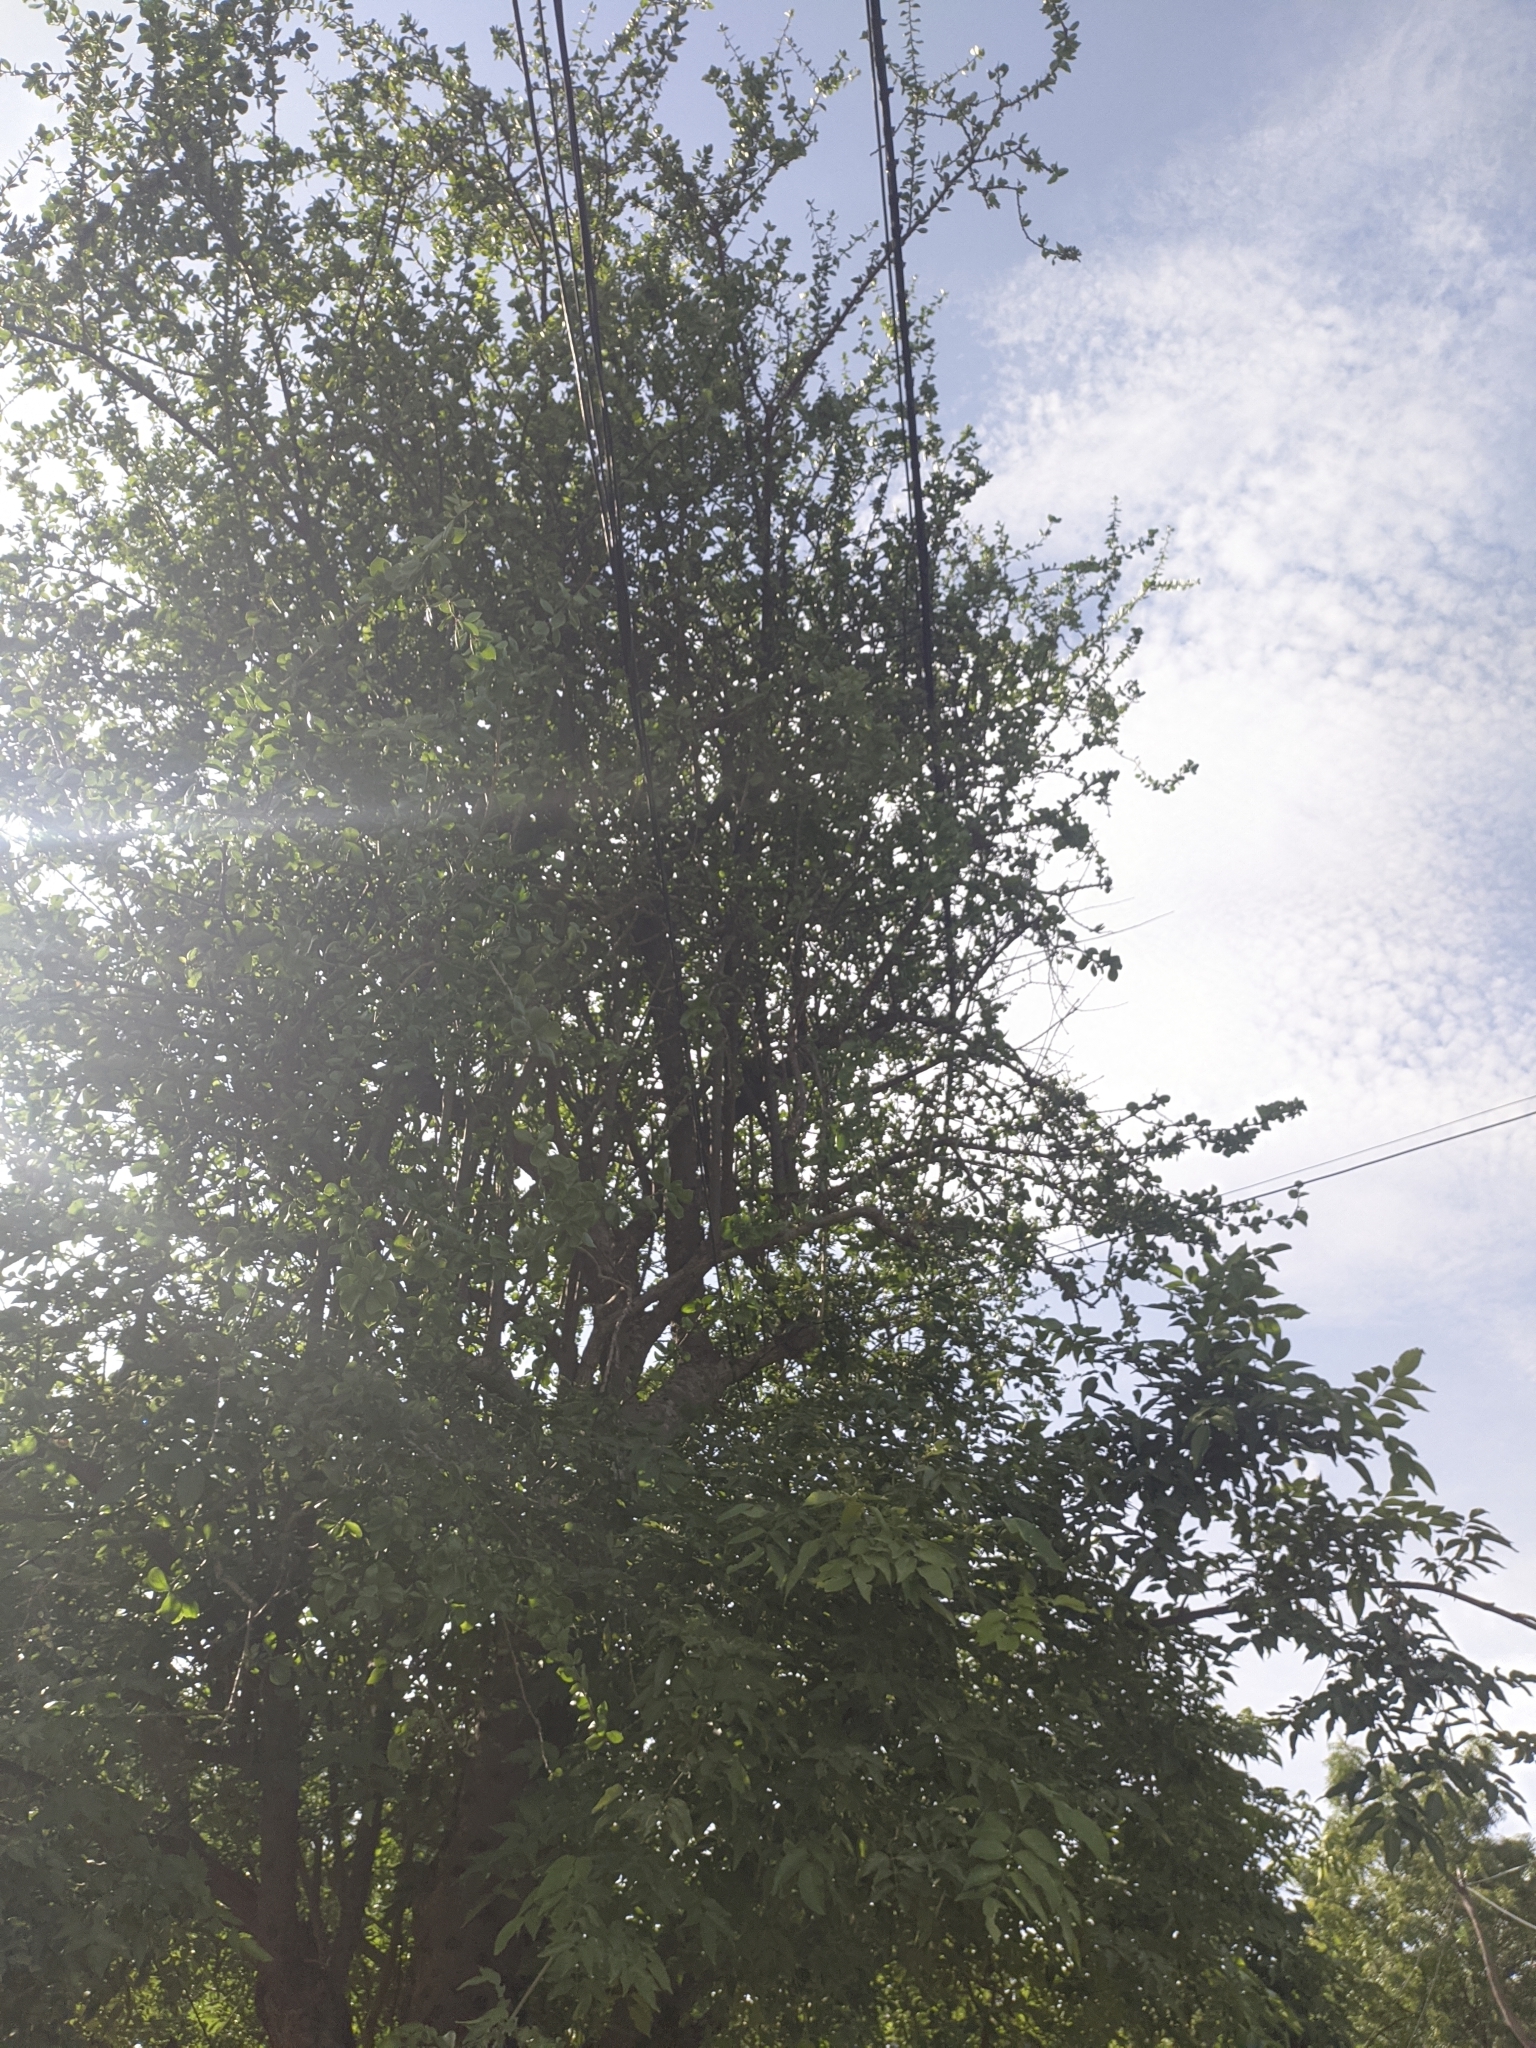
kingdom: Plantae
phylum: Tracheophyta
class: Magnoliopsida
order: Caryophyllales
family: Cactaceae
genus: Leuenbergeria
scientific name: Leuenbergeria guamacho
